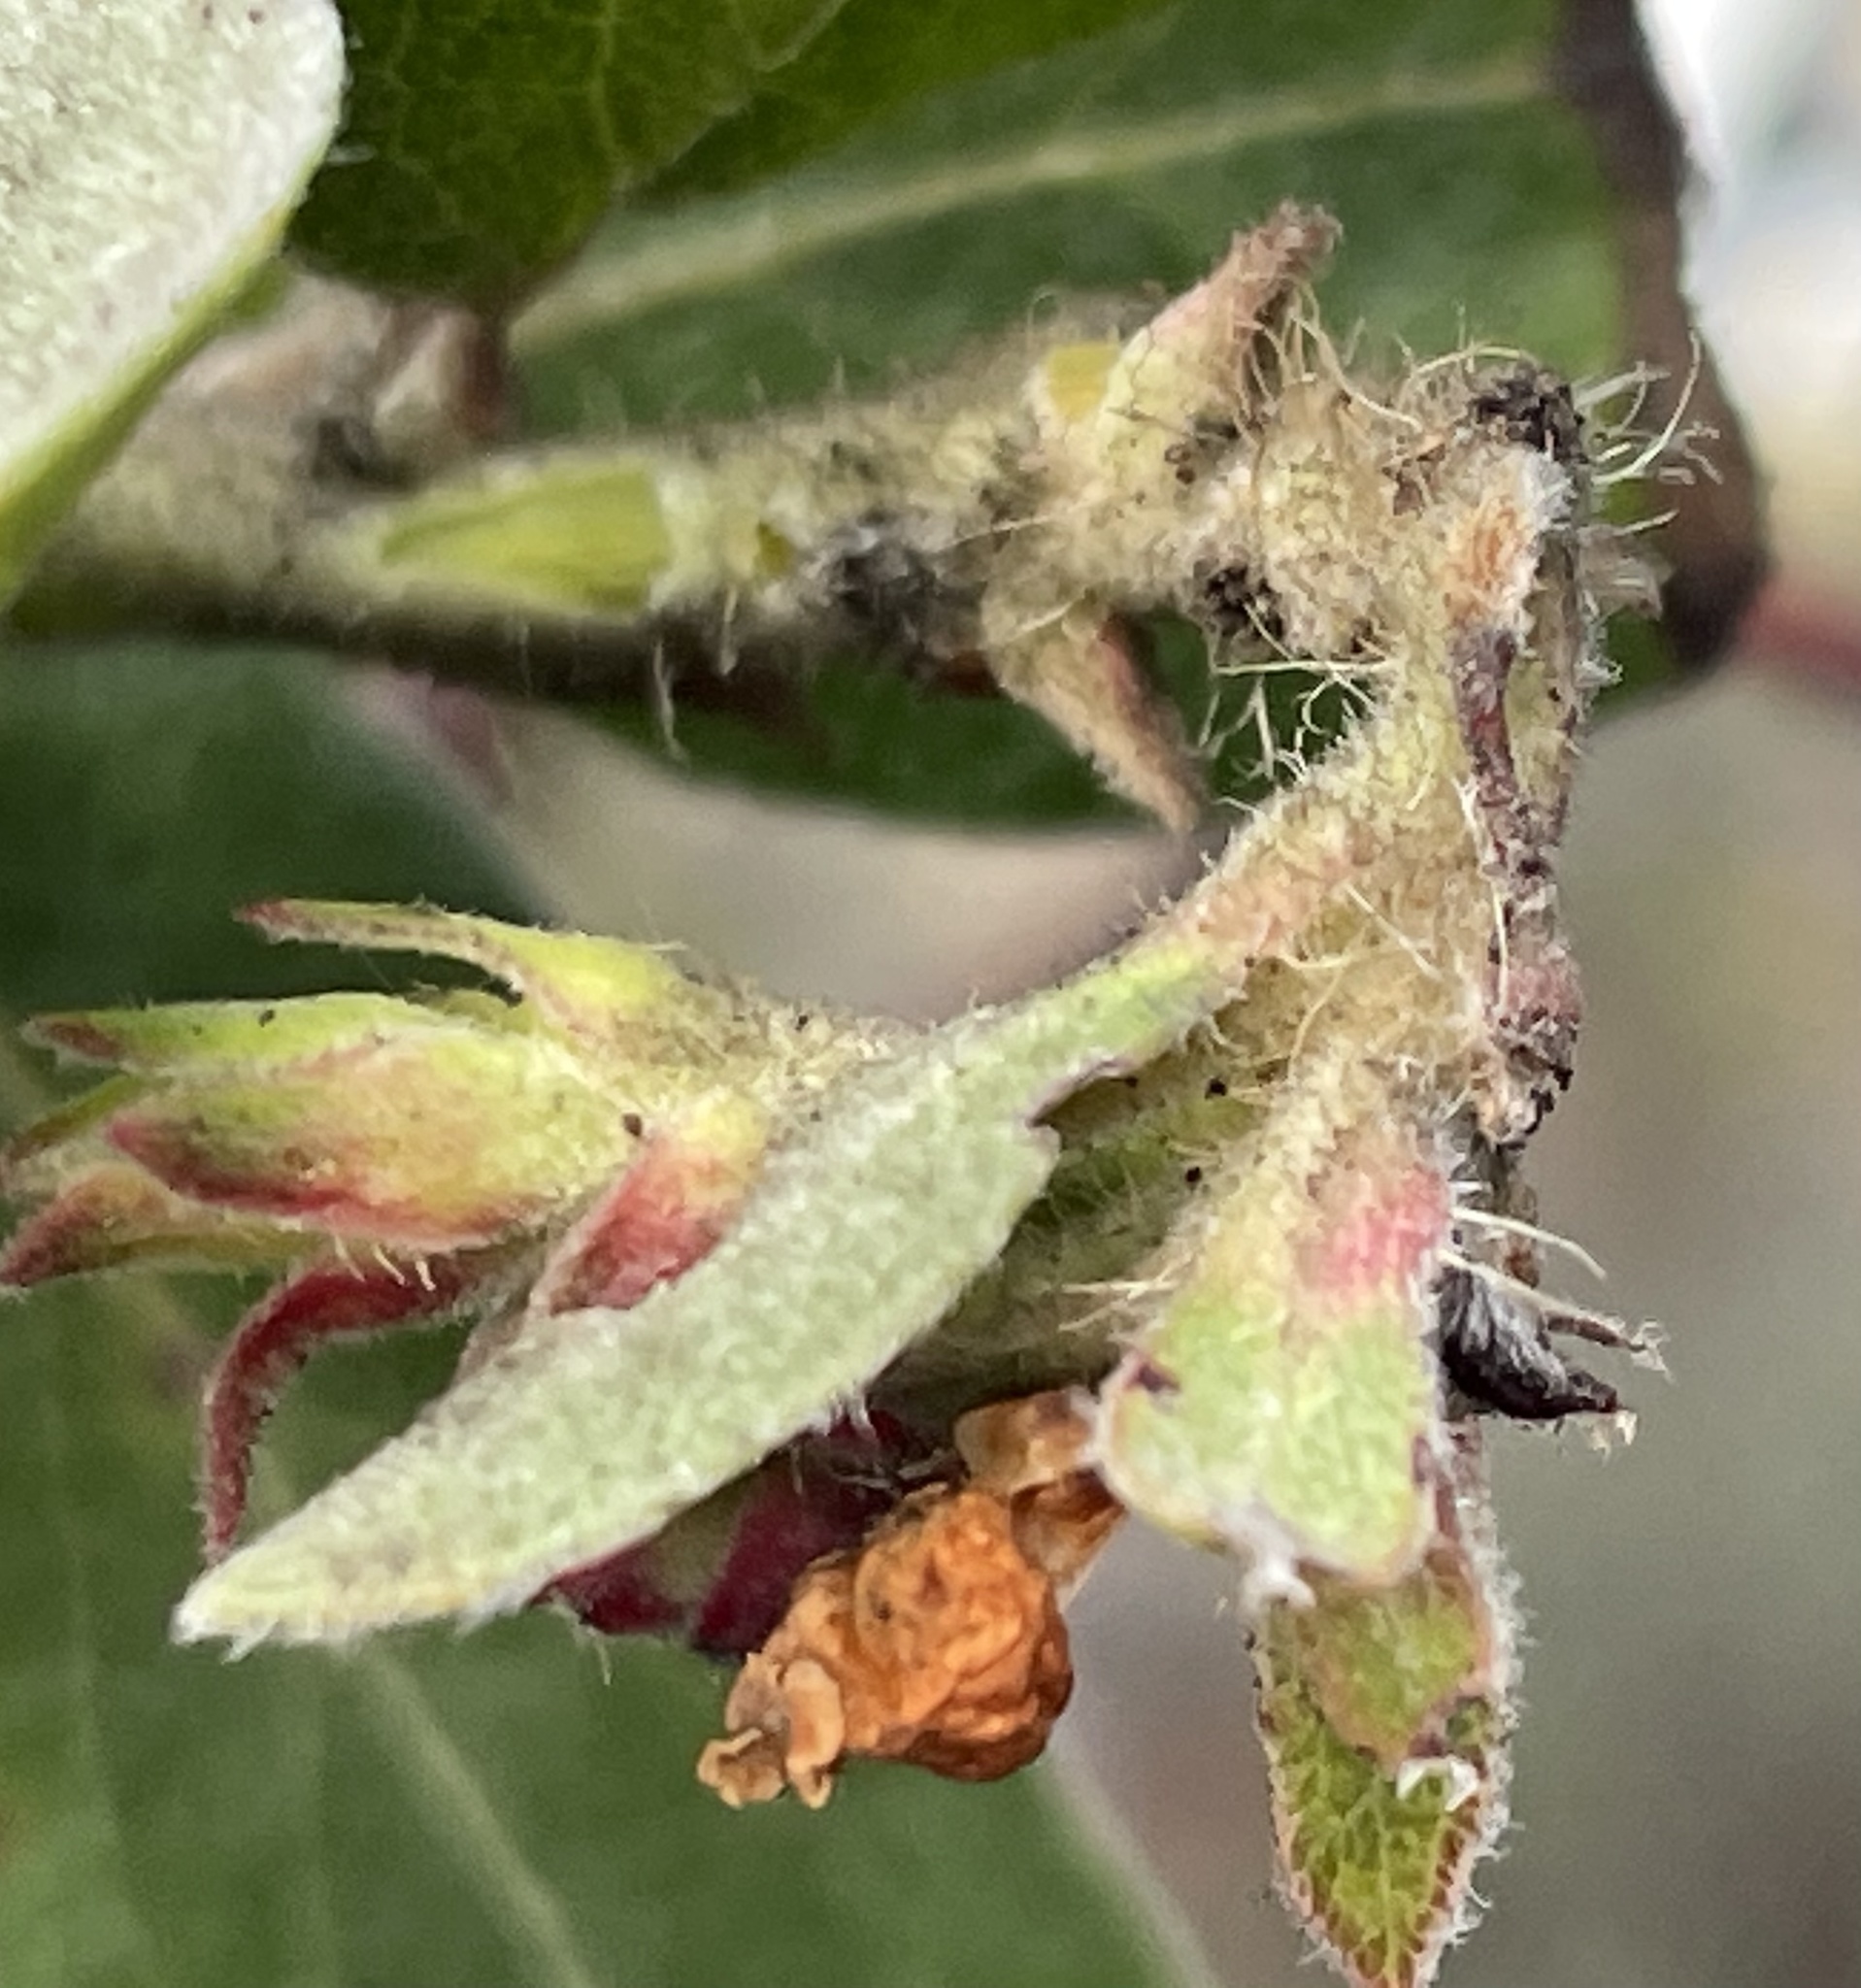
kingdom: Plantae
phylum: Tracheophyta
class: Magnoliopsida
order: Ericales
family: Ericaceae
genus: Arctostaphylos
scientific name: Arctostaphylos tomentosa
